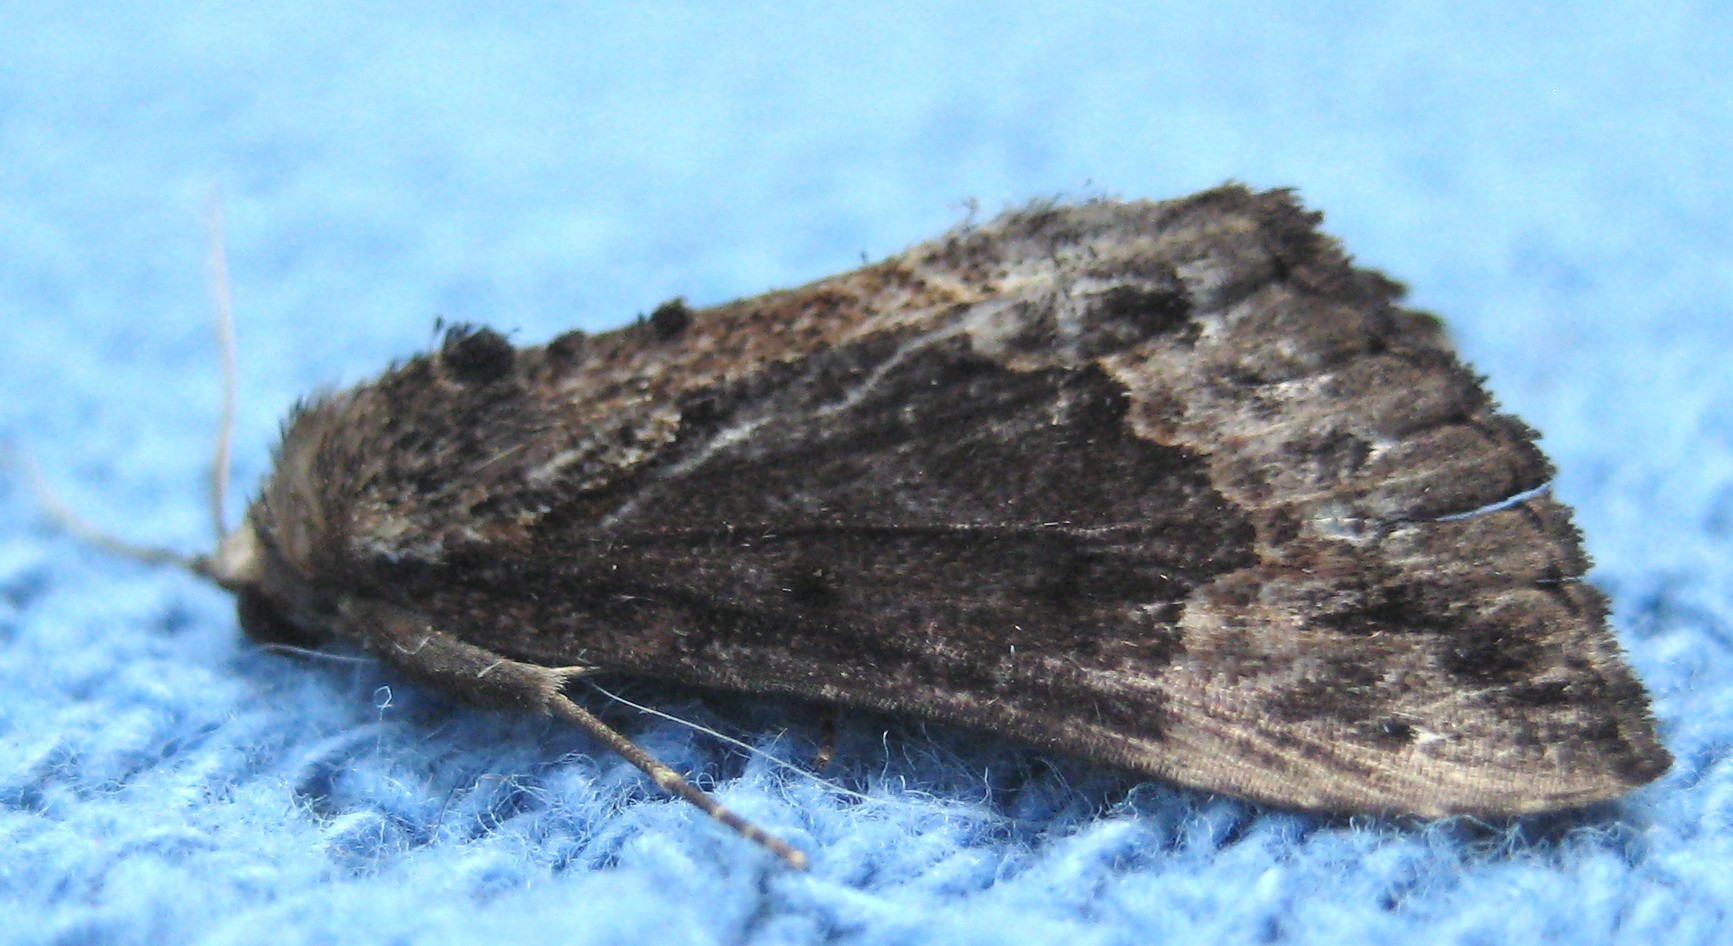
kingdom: Animalia
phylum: Arthropoda
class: Insecta
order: Lepidoptera
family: Erebidae
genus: Hypena
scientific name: Hypena baltimoralis
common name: Baltimore snout
